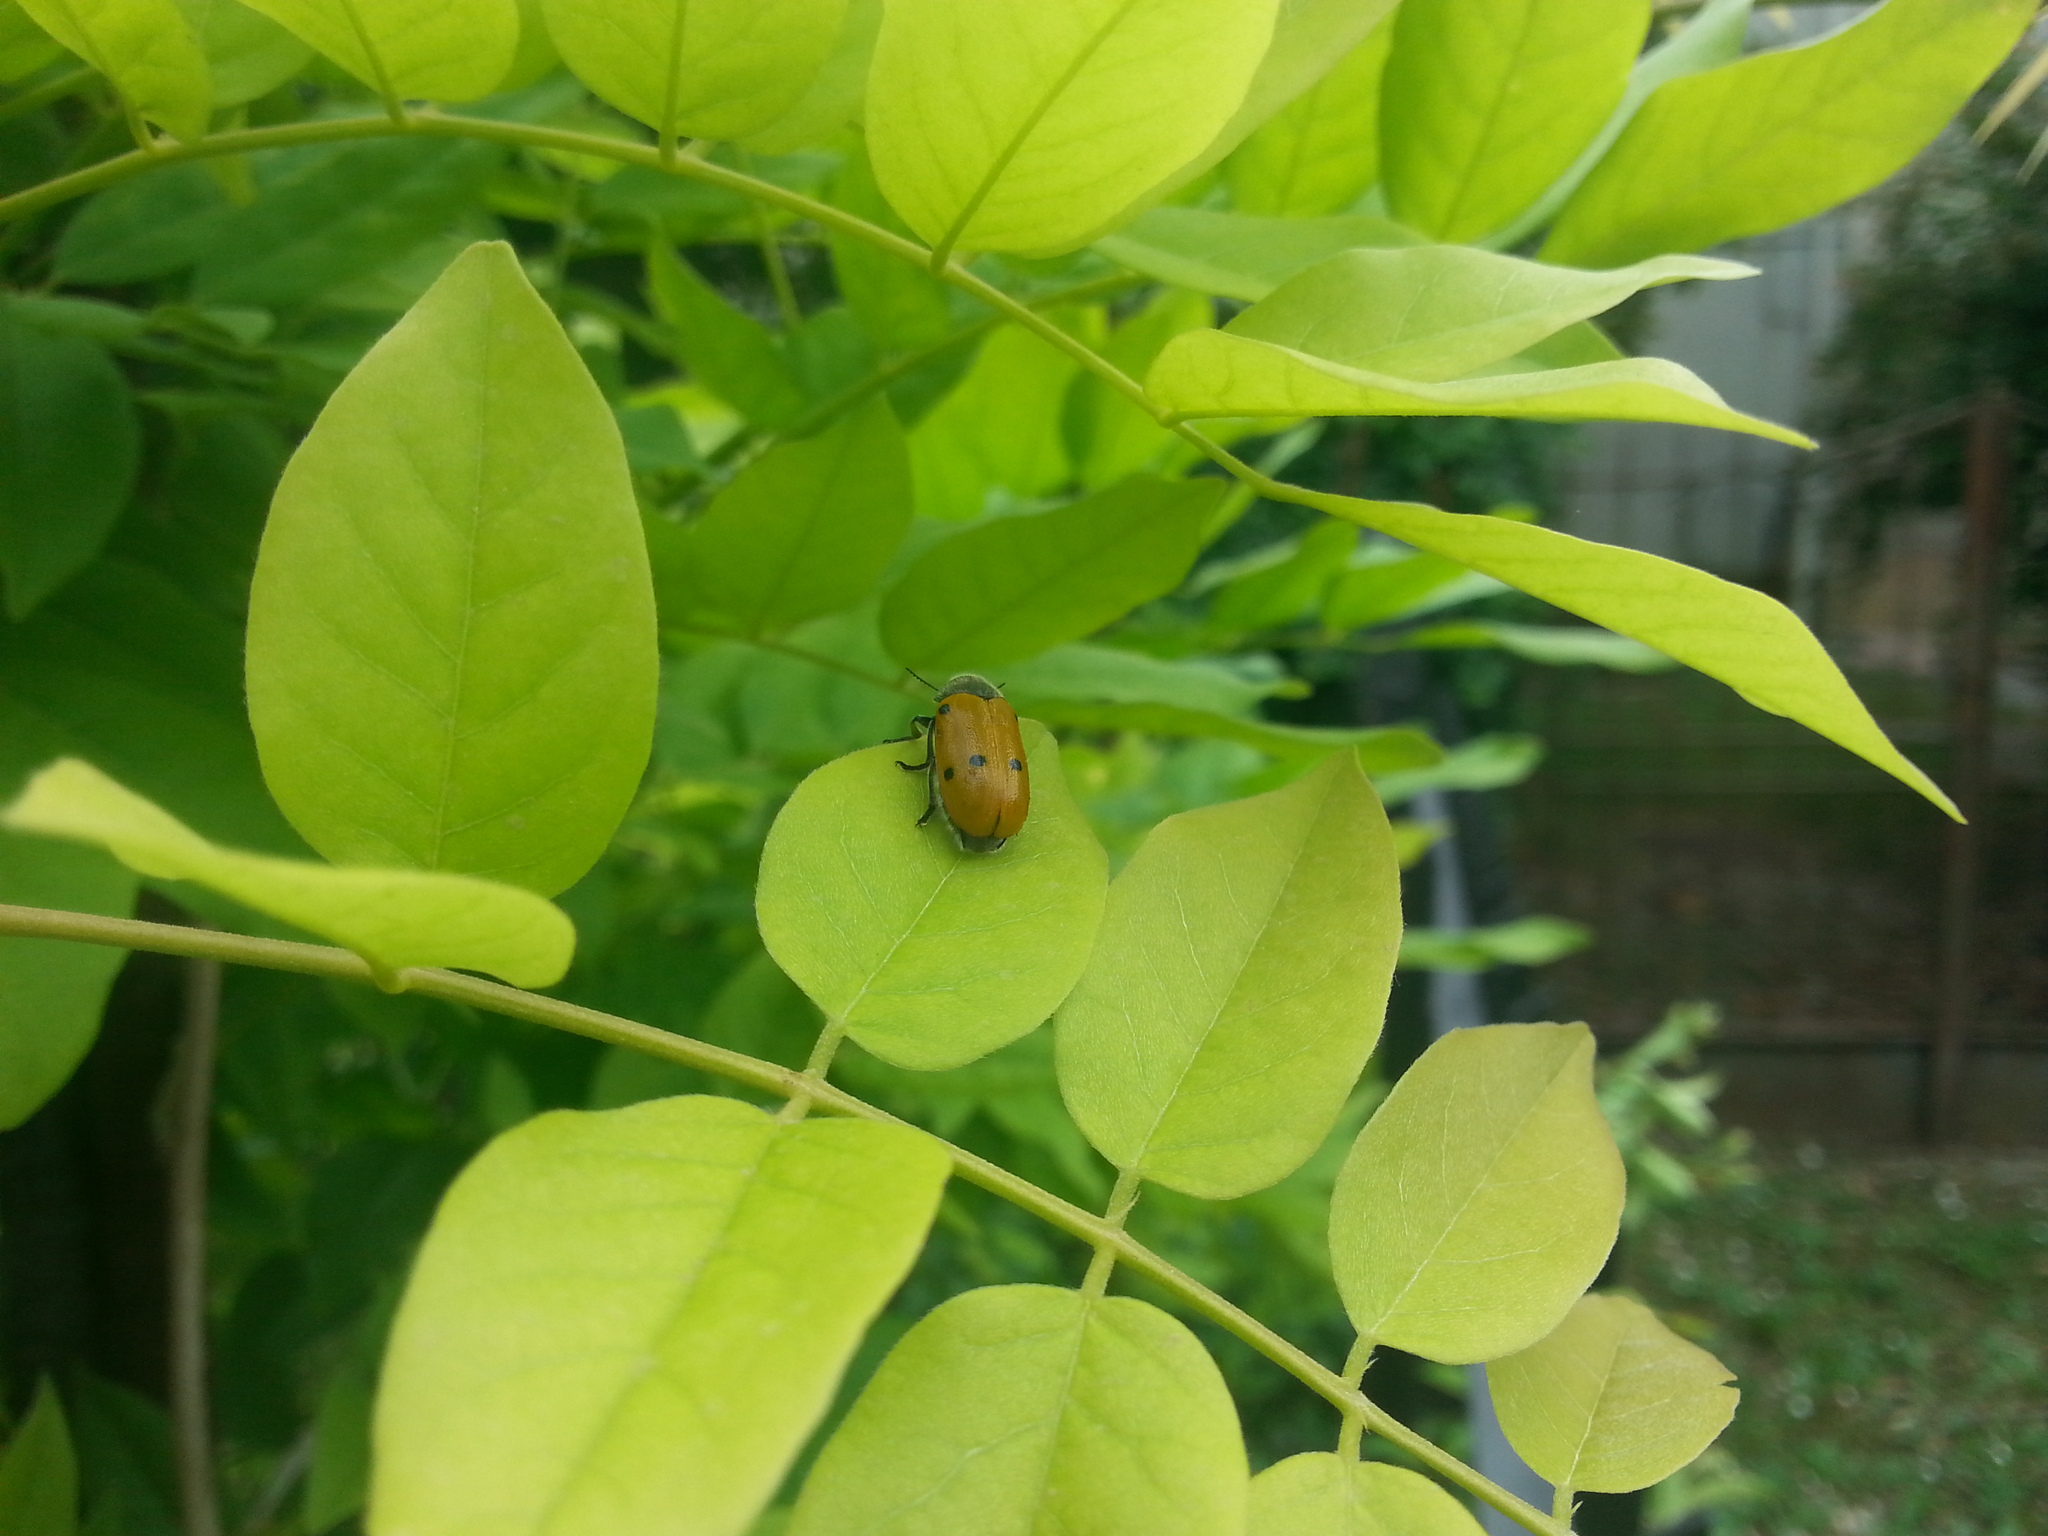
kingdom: Animalia
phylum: Arthropoda
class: Insecta
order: Coleoptera
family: Chrysomelidae
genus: Lachnaia
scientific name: Lachnaia italica
